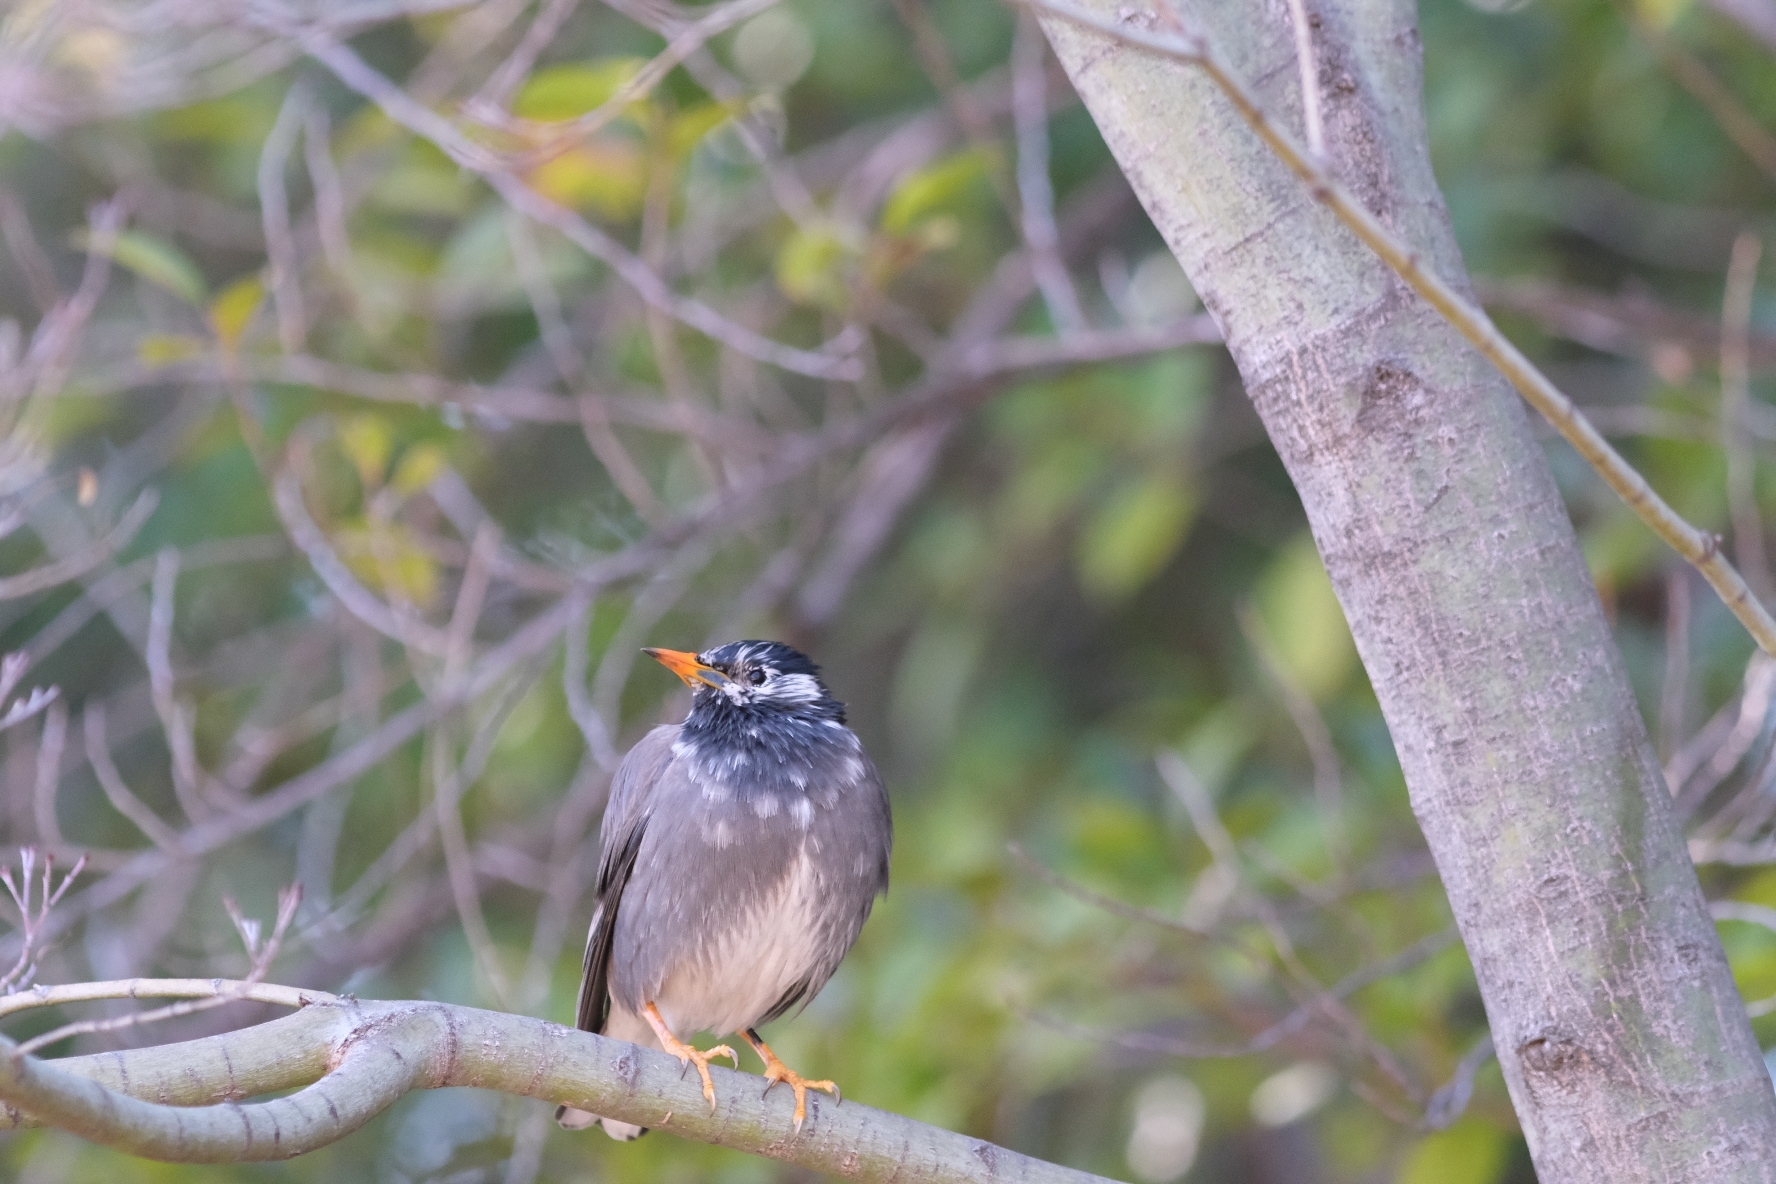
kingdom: Animalia
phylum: Chordata
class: Aves
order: Passeriformes
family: Sturnidae
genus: Spodiopsar
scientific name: Spodiopsar cineraceus
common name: White-cheeked starling
